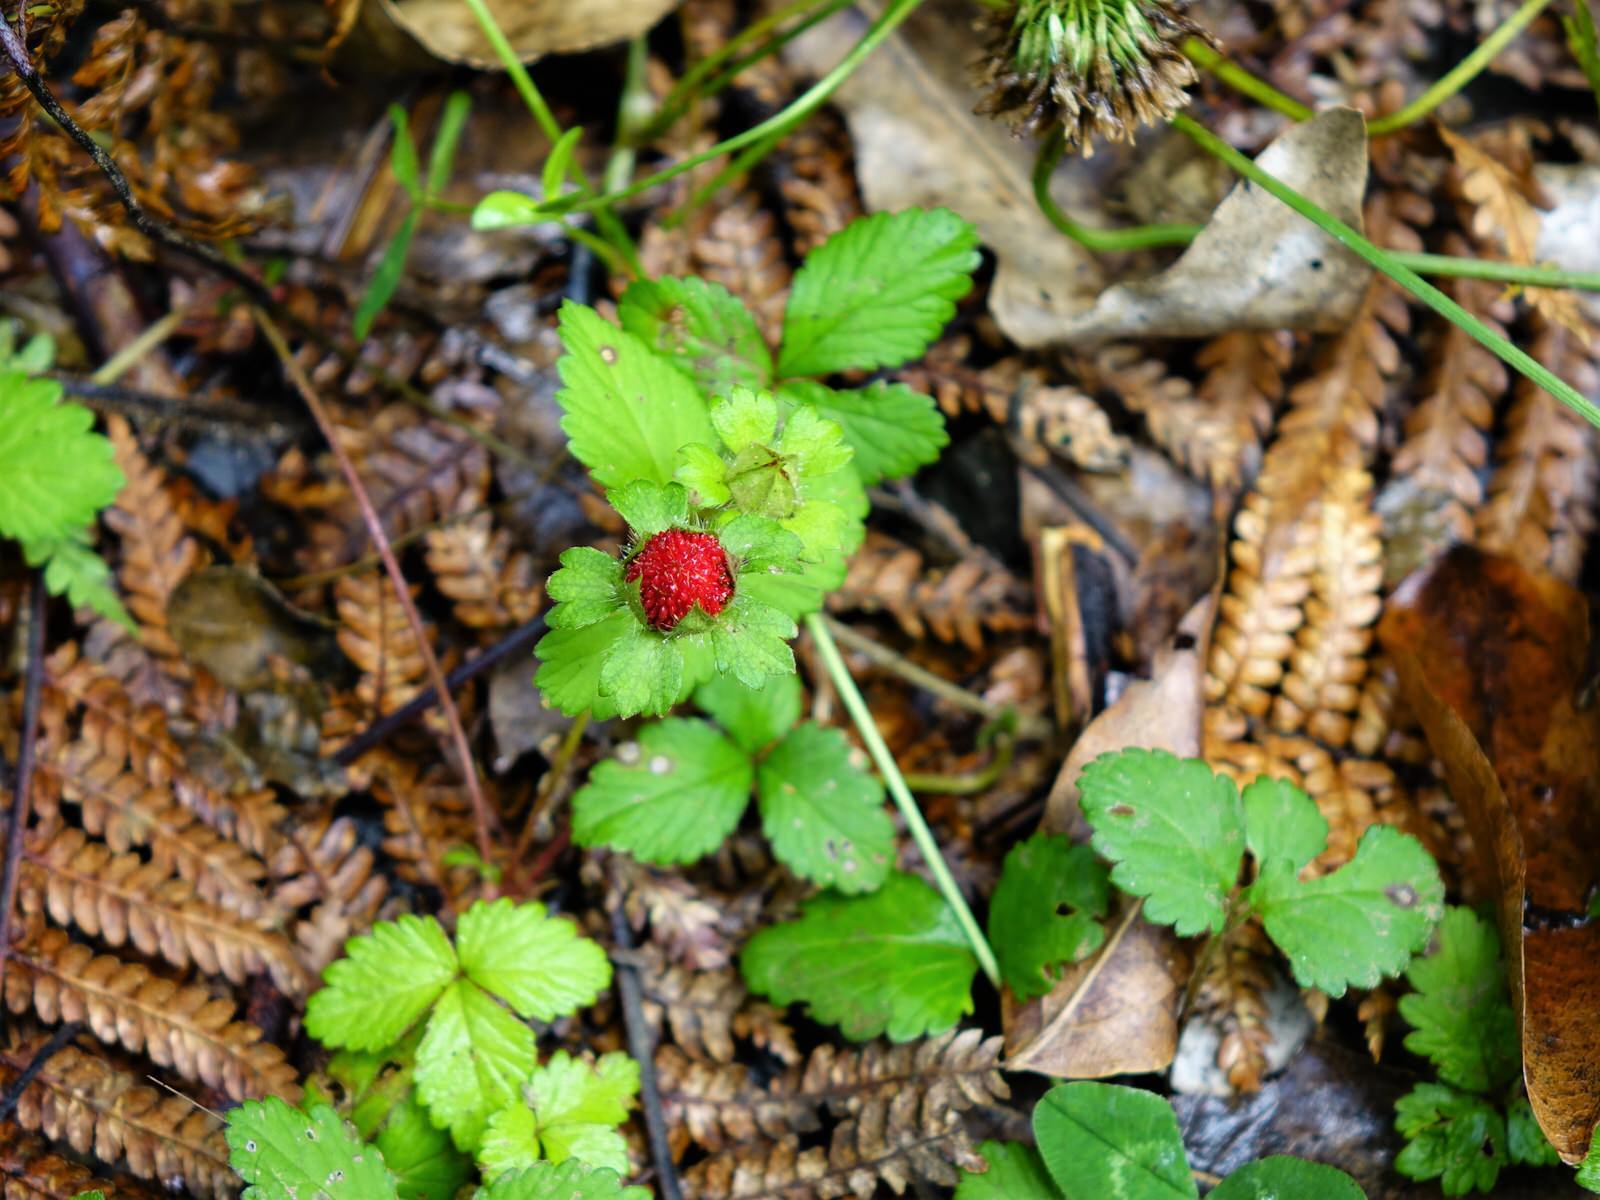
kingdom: Plantae
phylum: Tracheophyta
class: Magnoliopsida
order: Rosales
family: Rosaceae
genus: Potentilla
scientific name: Potentilla indica
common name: Yellow-flowered strawberry
